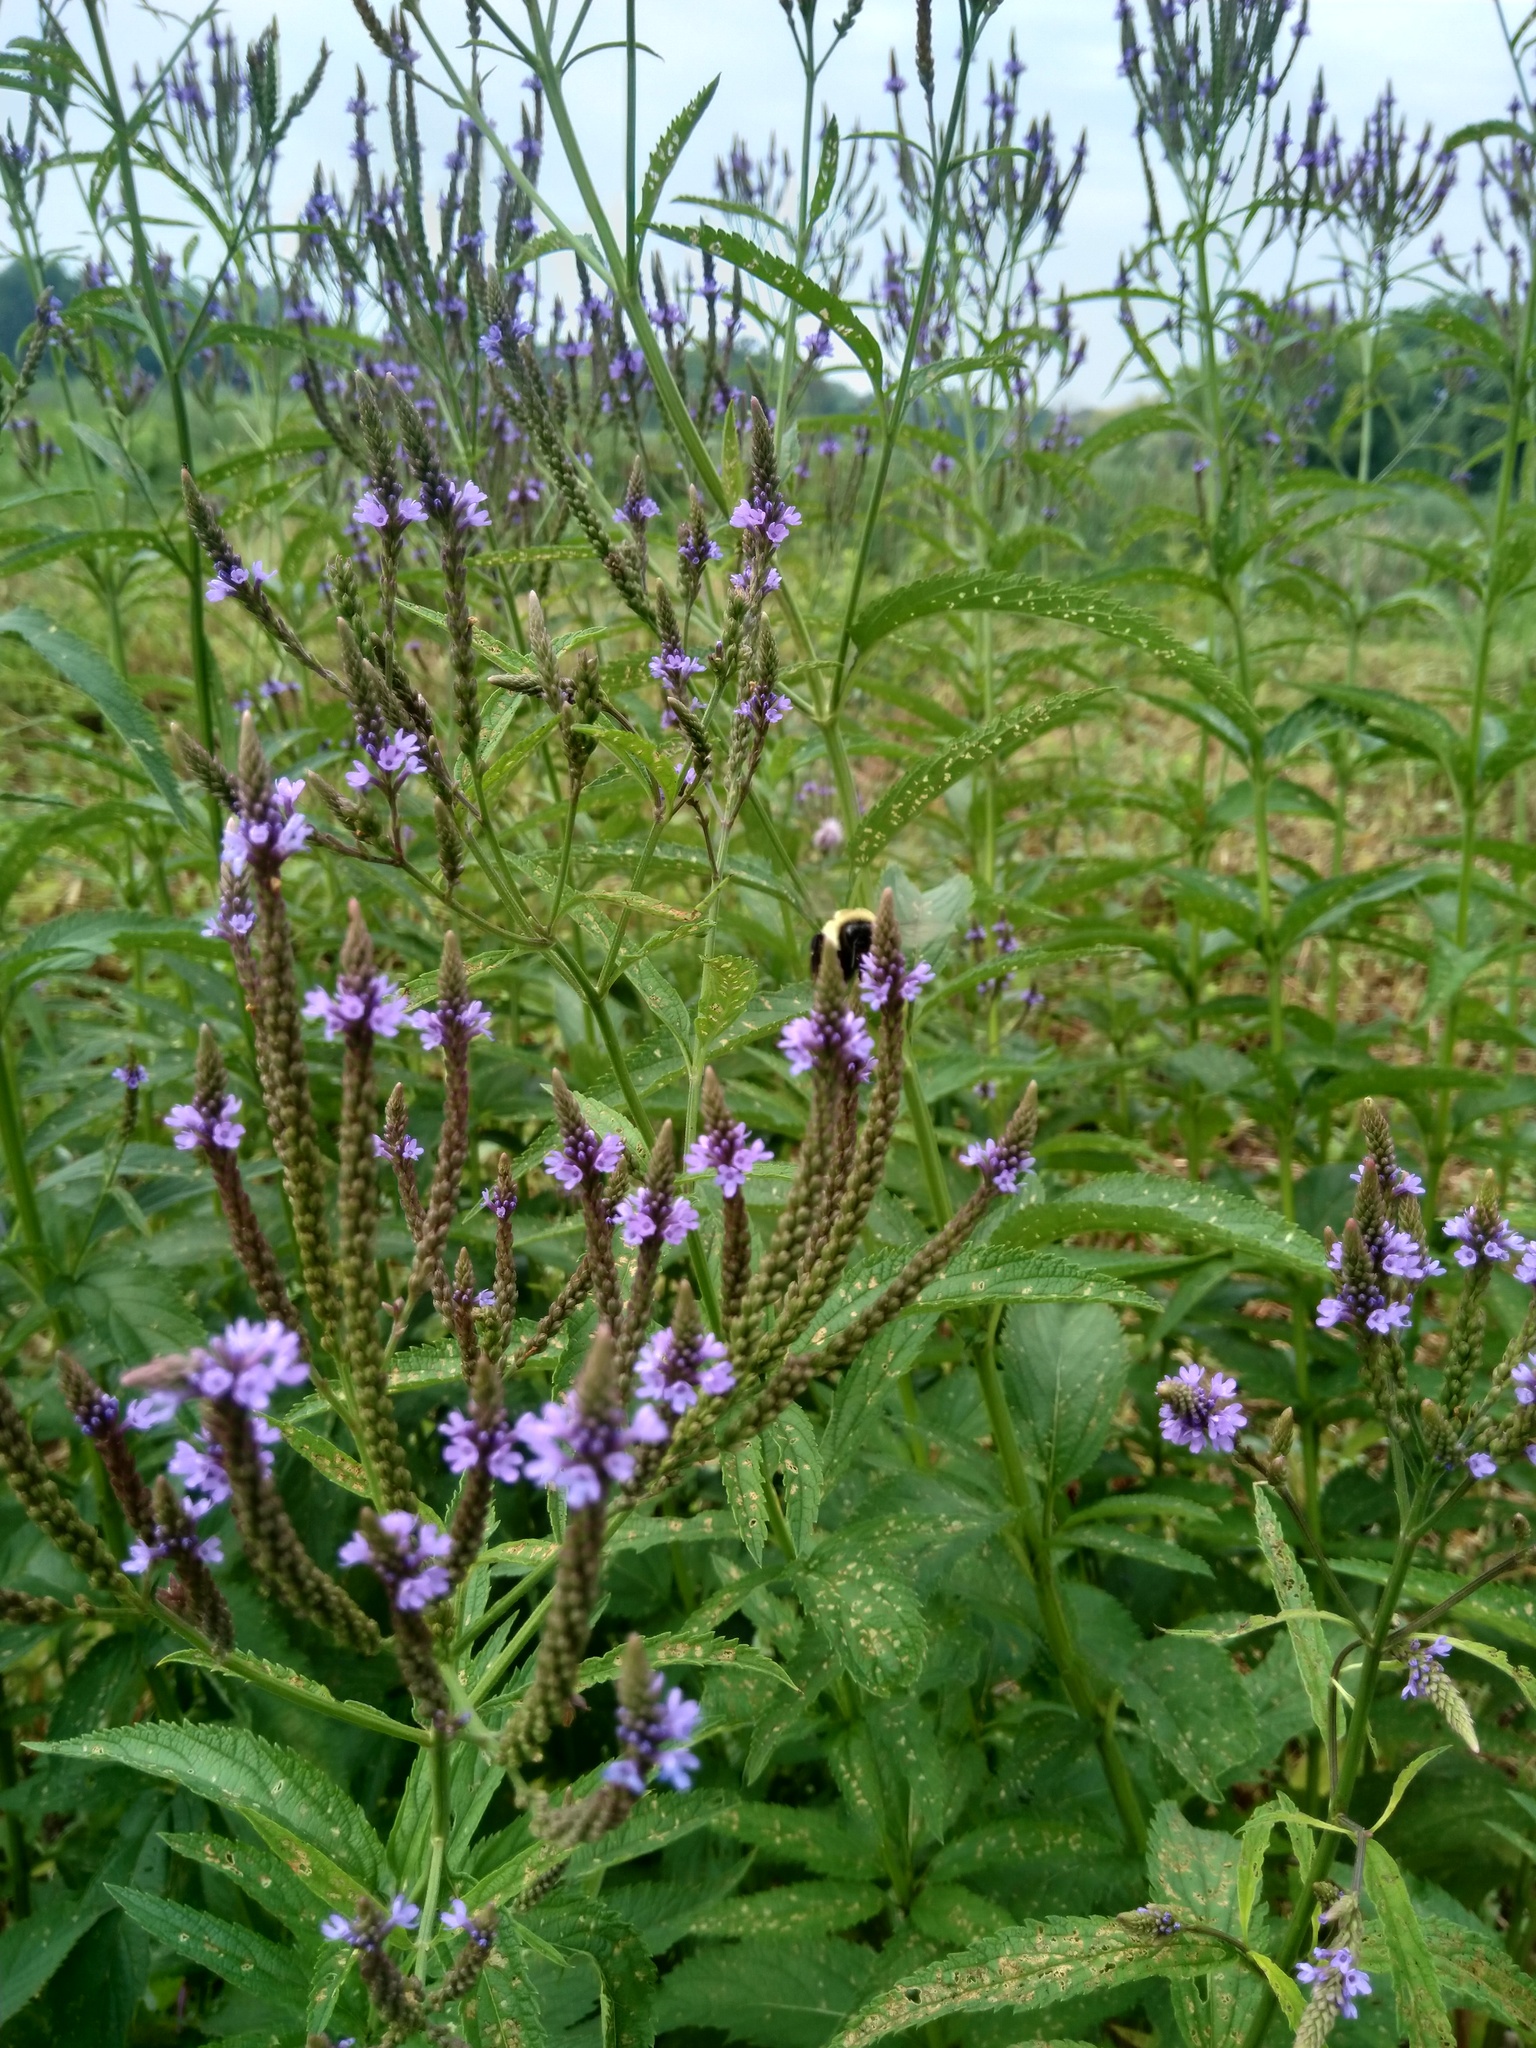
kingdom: Plantae
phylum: Tracheophyta
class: Magnoliopsida
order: Lamiales
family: Verbenaceae
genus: Verbena
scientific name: Verbena hastata
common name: American blue vervain
